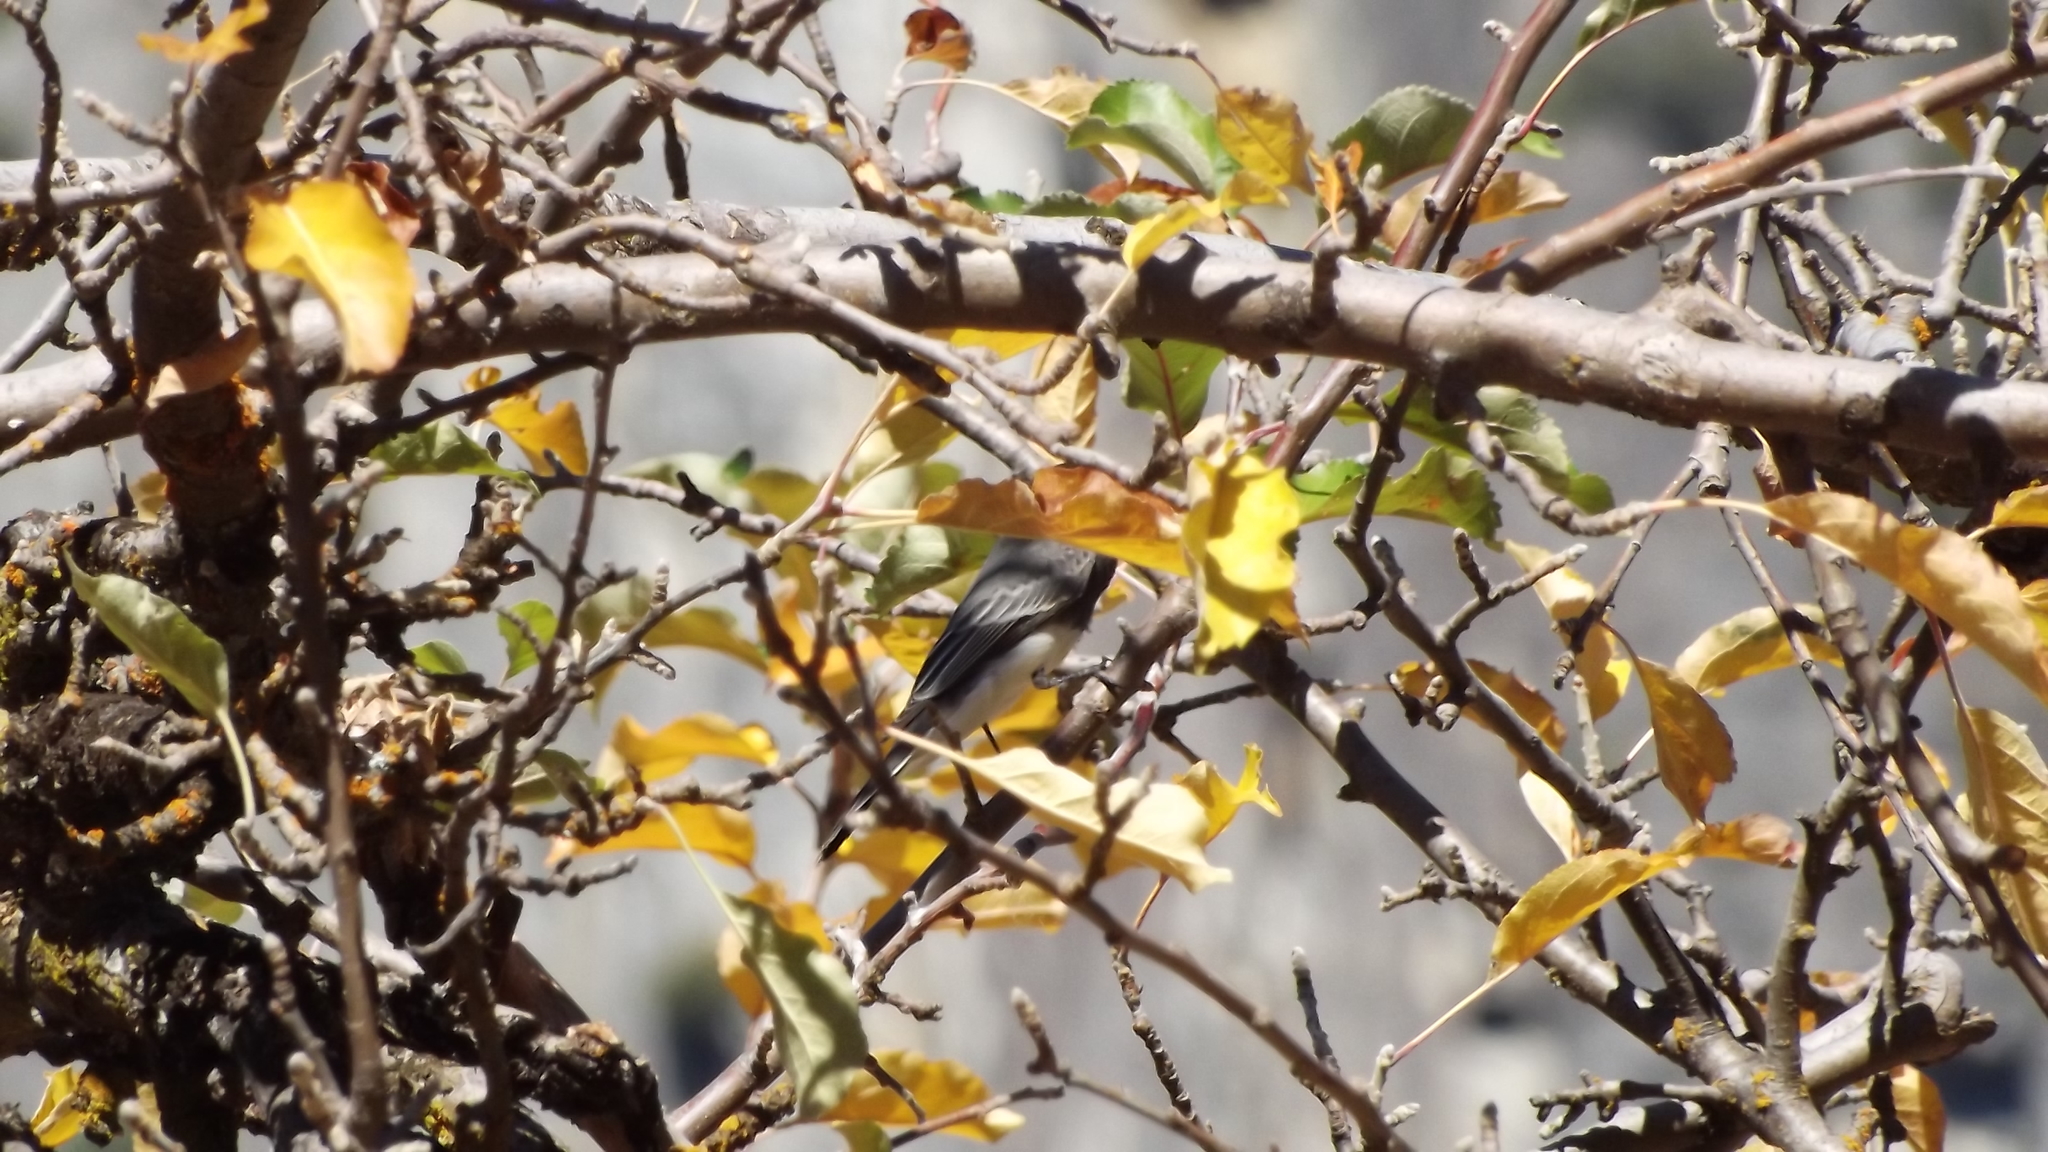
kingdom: Animalia
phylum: Chordata
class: Aves
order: Passeriformes
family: Tyrannidae
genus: Sayornis
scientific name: Sayornis nigricans
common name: Black phoebe
